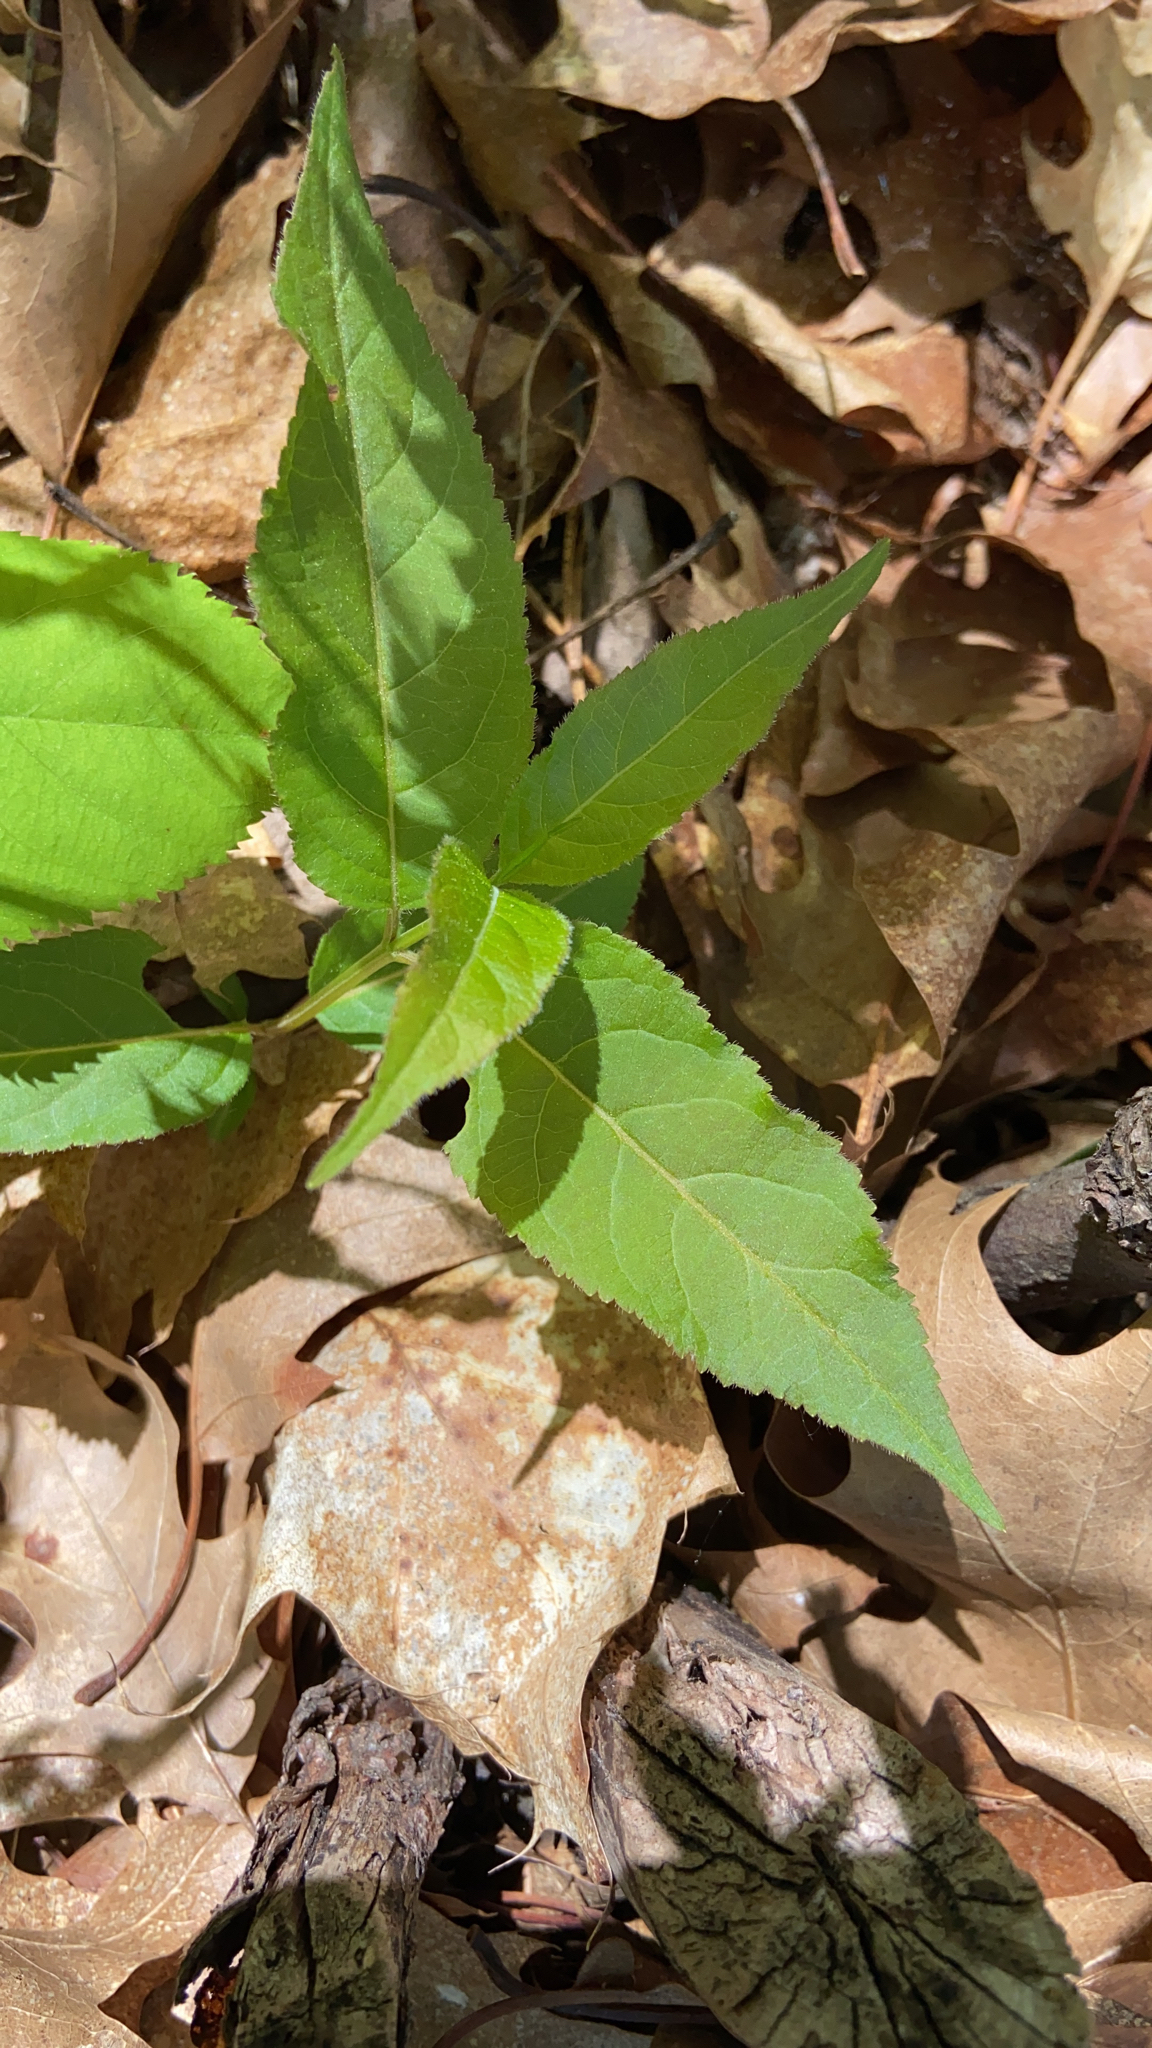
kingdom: Plantae
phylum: Tracheophyta
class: Magnoliopsida
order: Dipsacales
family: Caprifoliaceae
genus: Diervilla
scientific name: Diervilla lonicera
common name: Bush-honeysuckle
